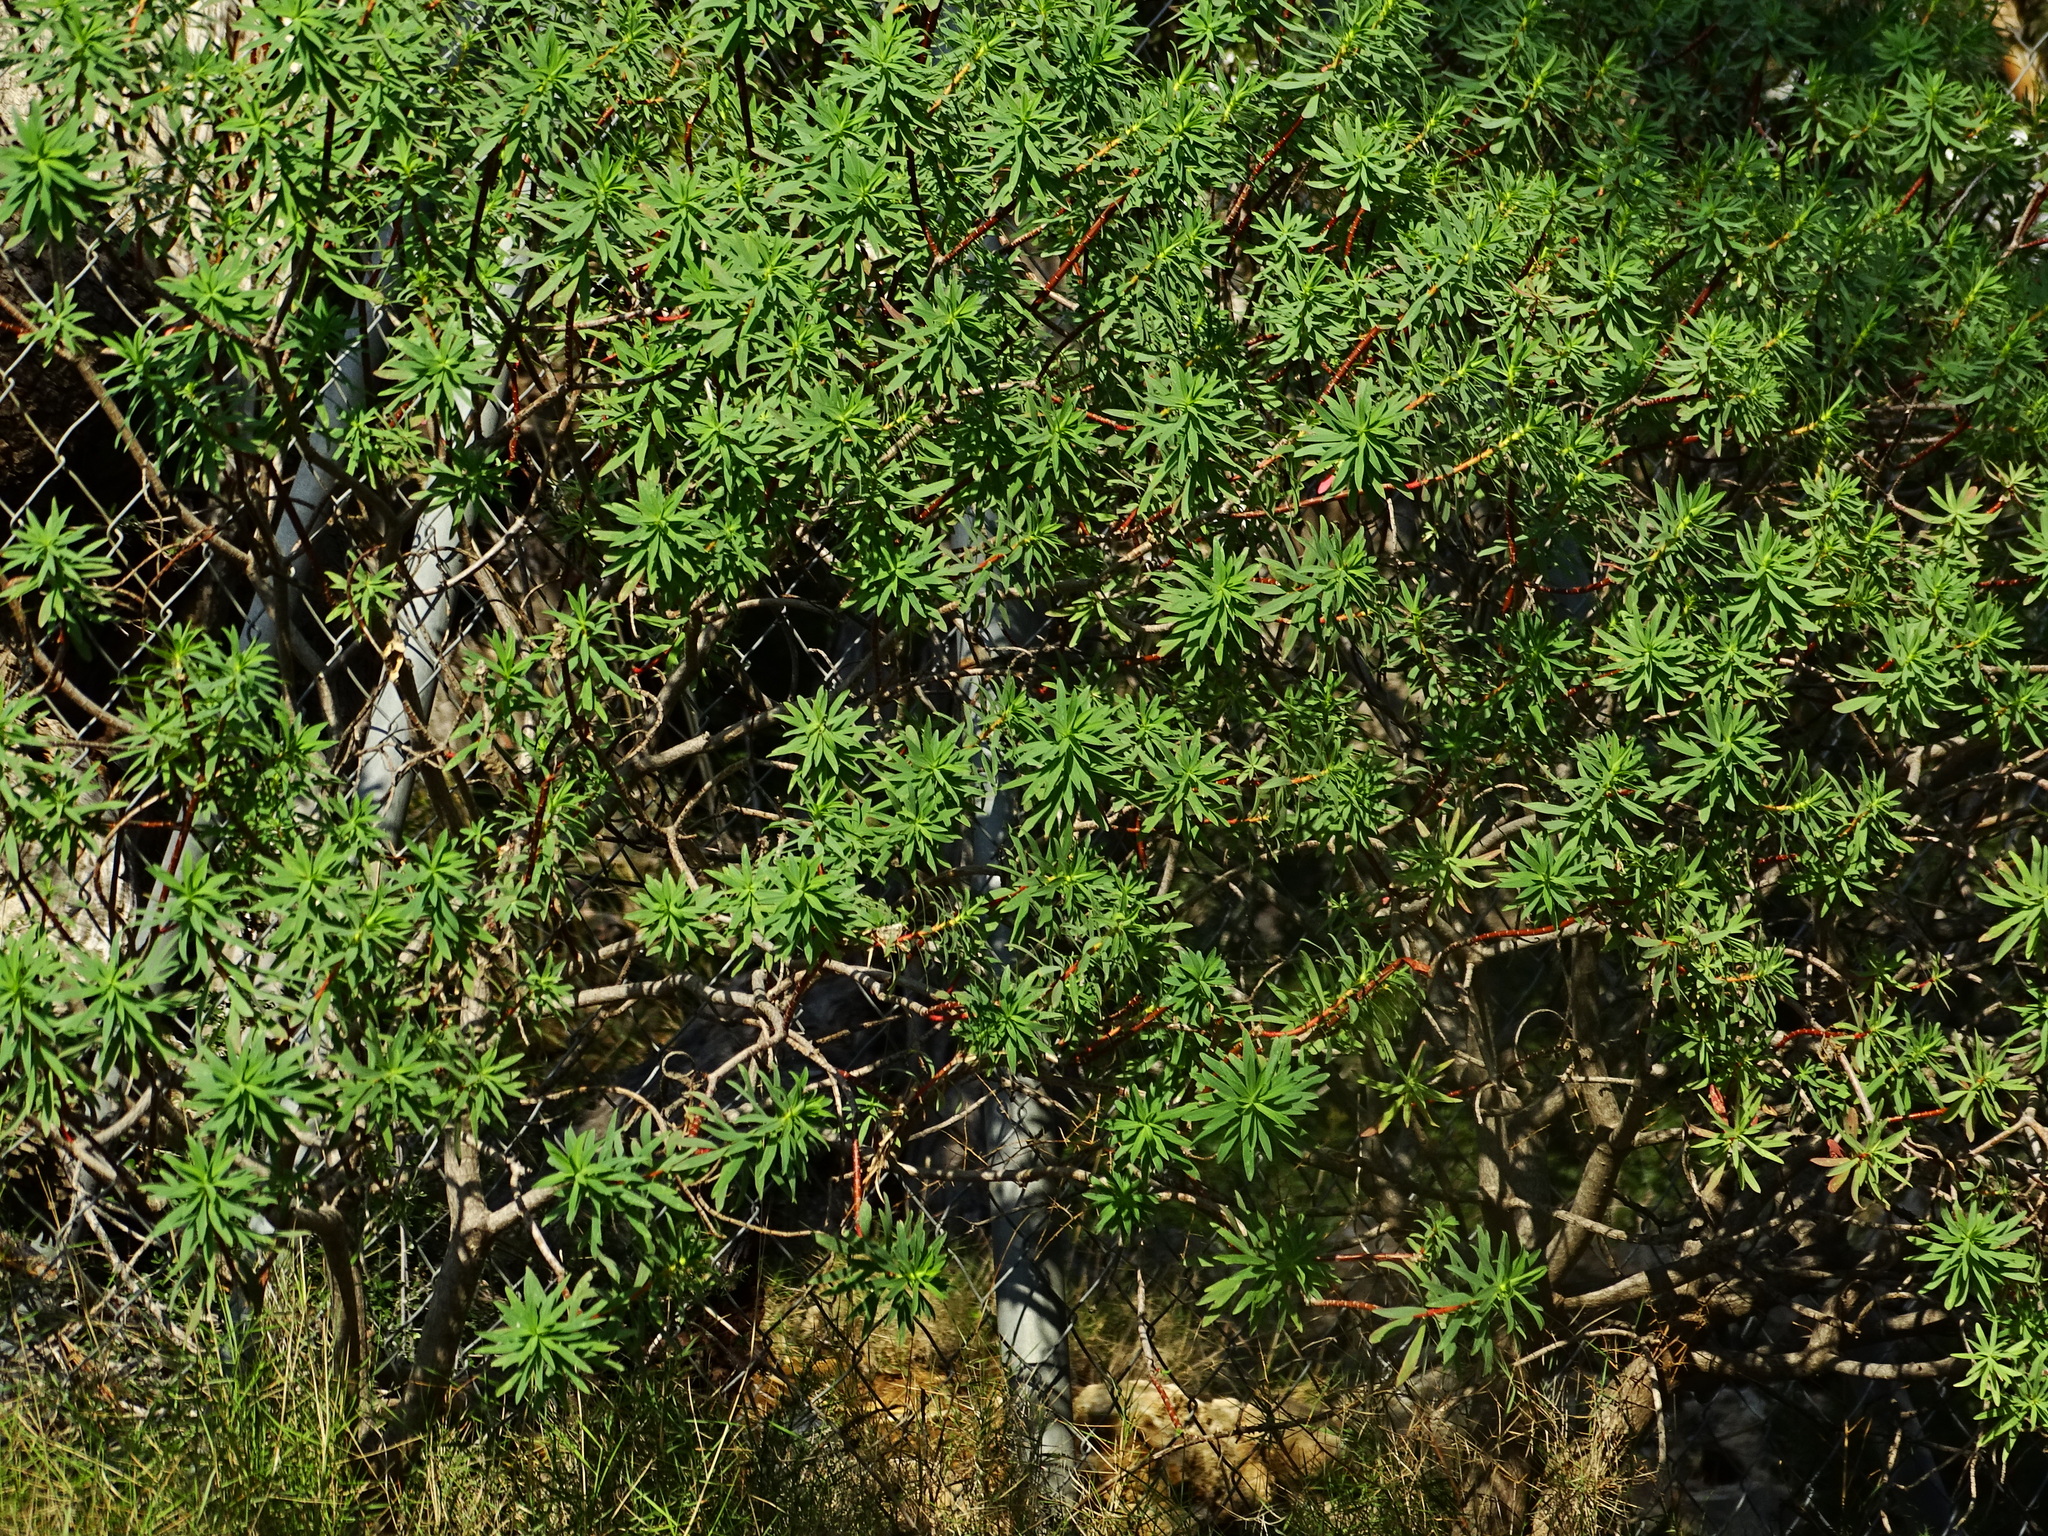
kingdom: Plantae
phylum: Tracheophyta
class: Magnoliopsida
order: Malpighiales
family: Euphorbiaceae
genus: Euphorbia
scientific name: Euphorbia dendroides
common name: Tree spurge
